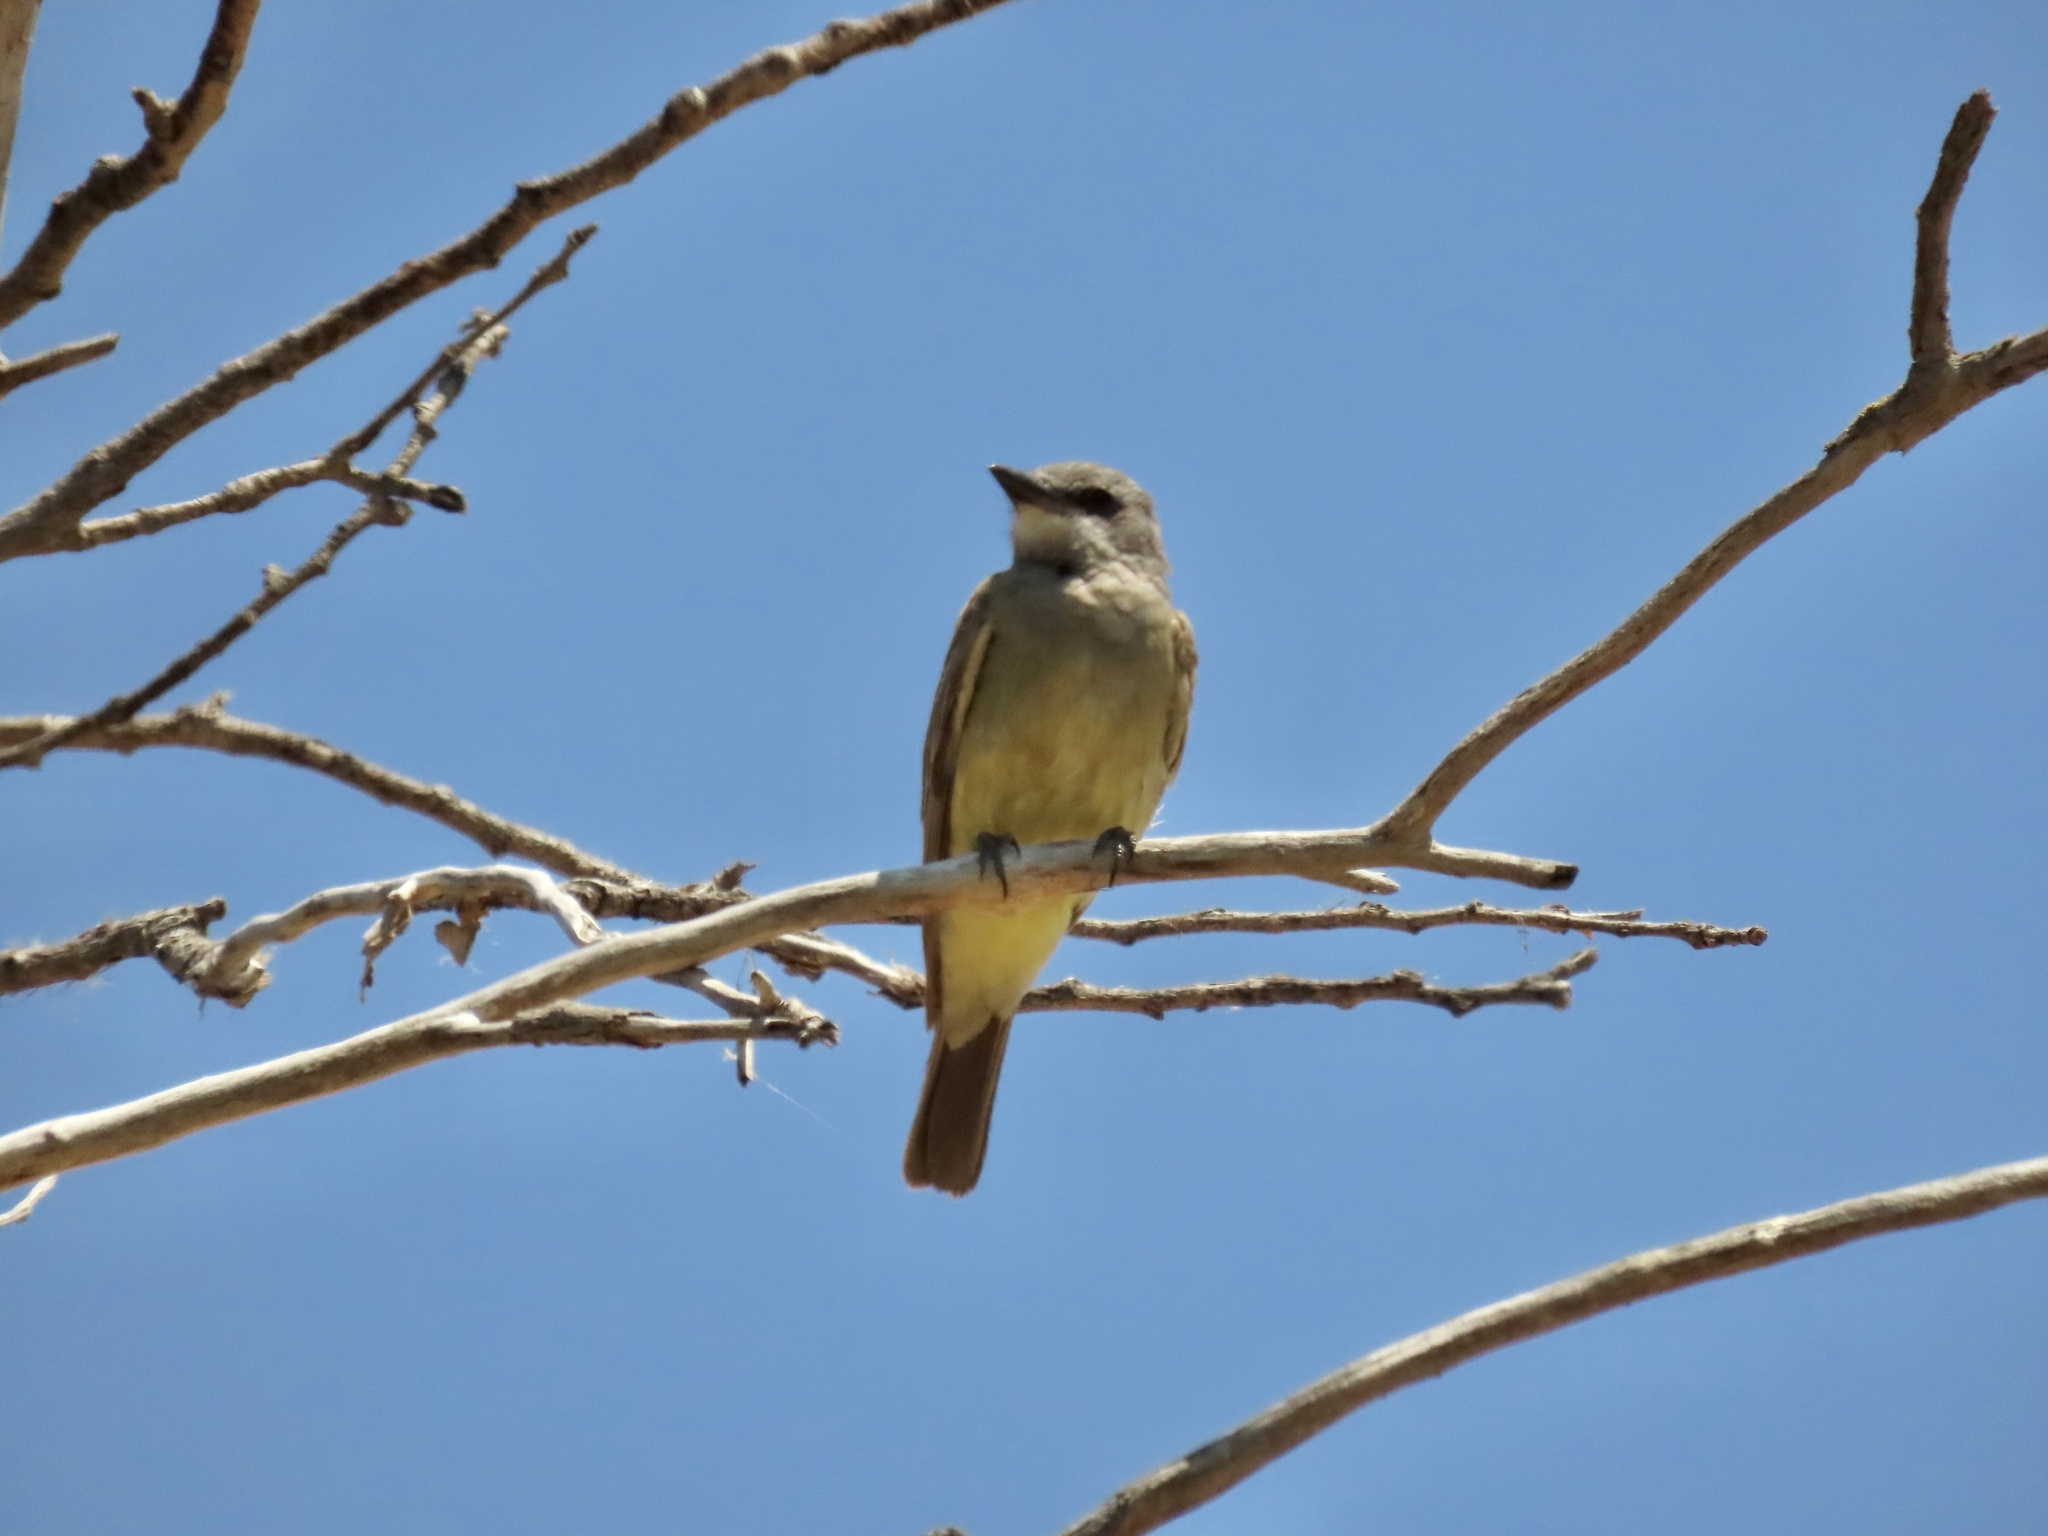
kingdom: Animalia
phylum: Chordata
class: Aves
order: Passeriformes
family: Tyrannidae
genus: Tyrannus
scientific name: Tyrannus vociferans
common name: Cassin's kingbird
